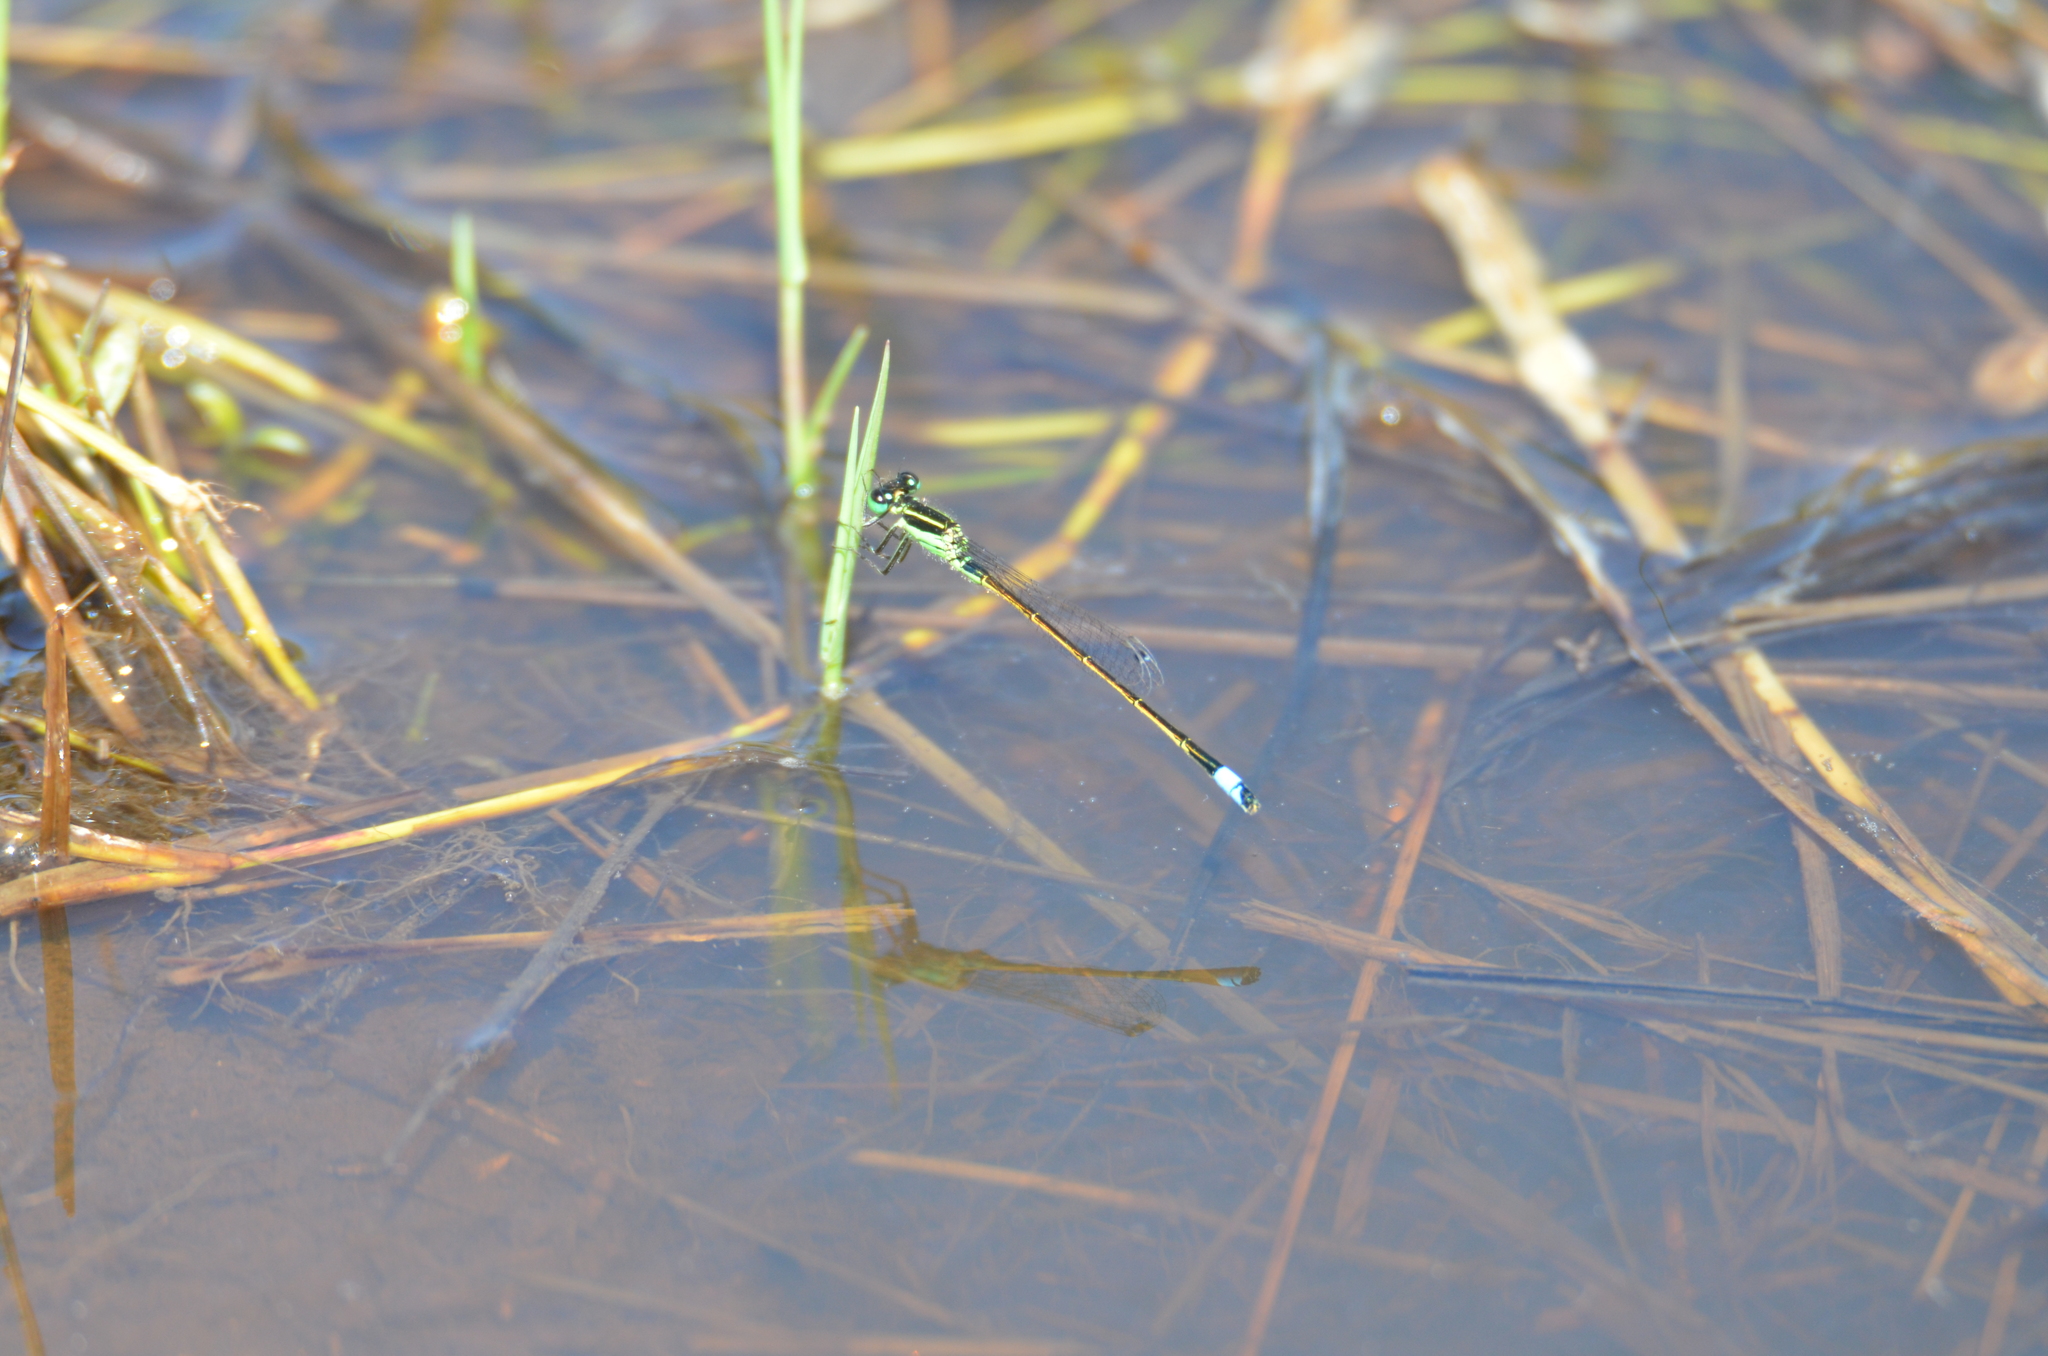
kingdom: Animalia
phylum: Arthropoda
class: Insecta
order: Odonata
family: Coenagrionidae
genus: Ischnura
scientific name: Ischnura ramburii
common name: Rambur's forktail
